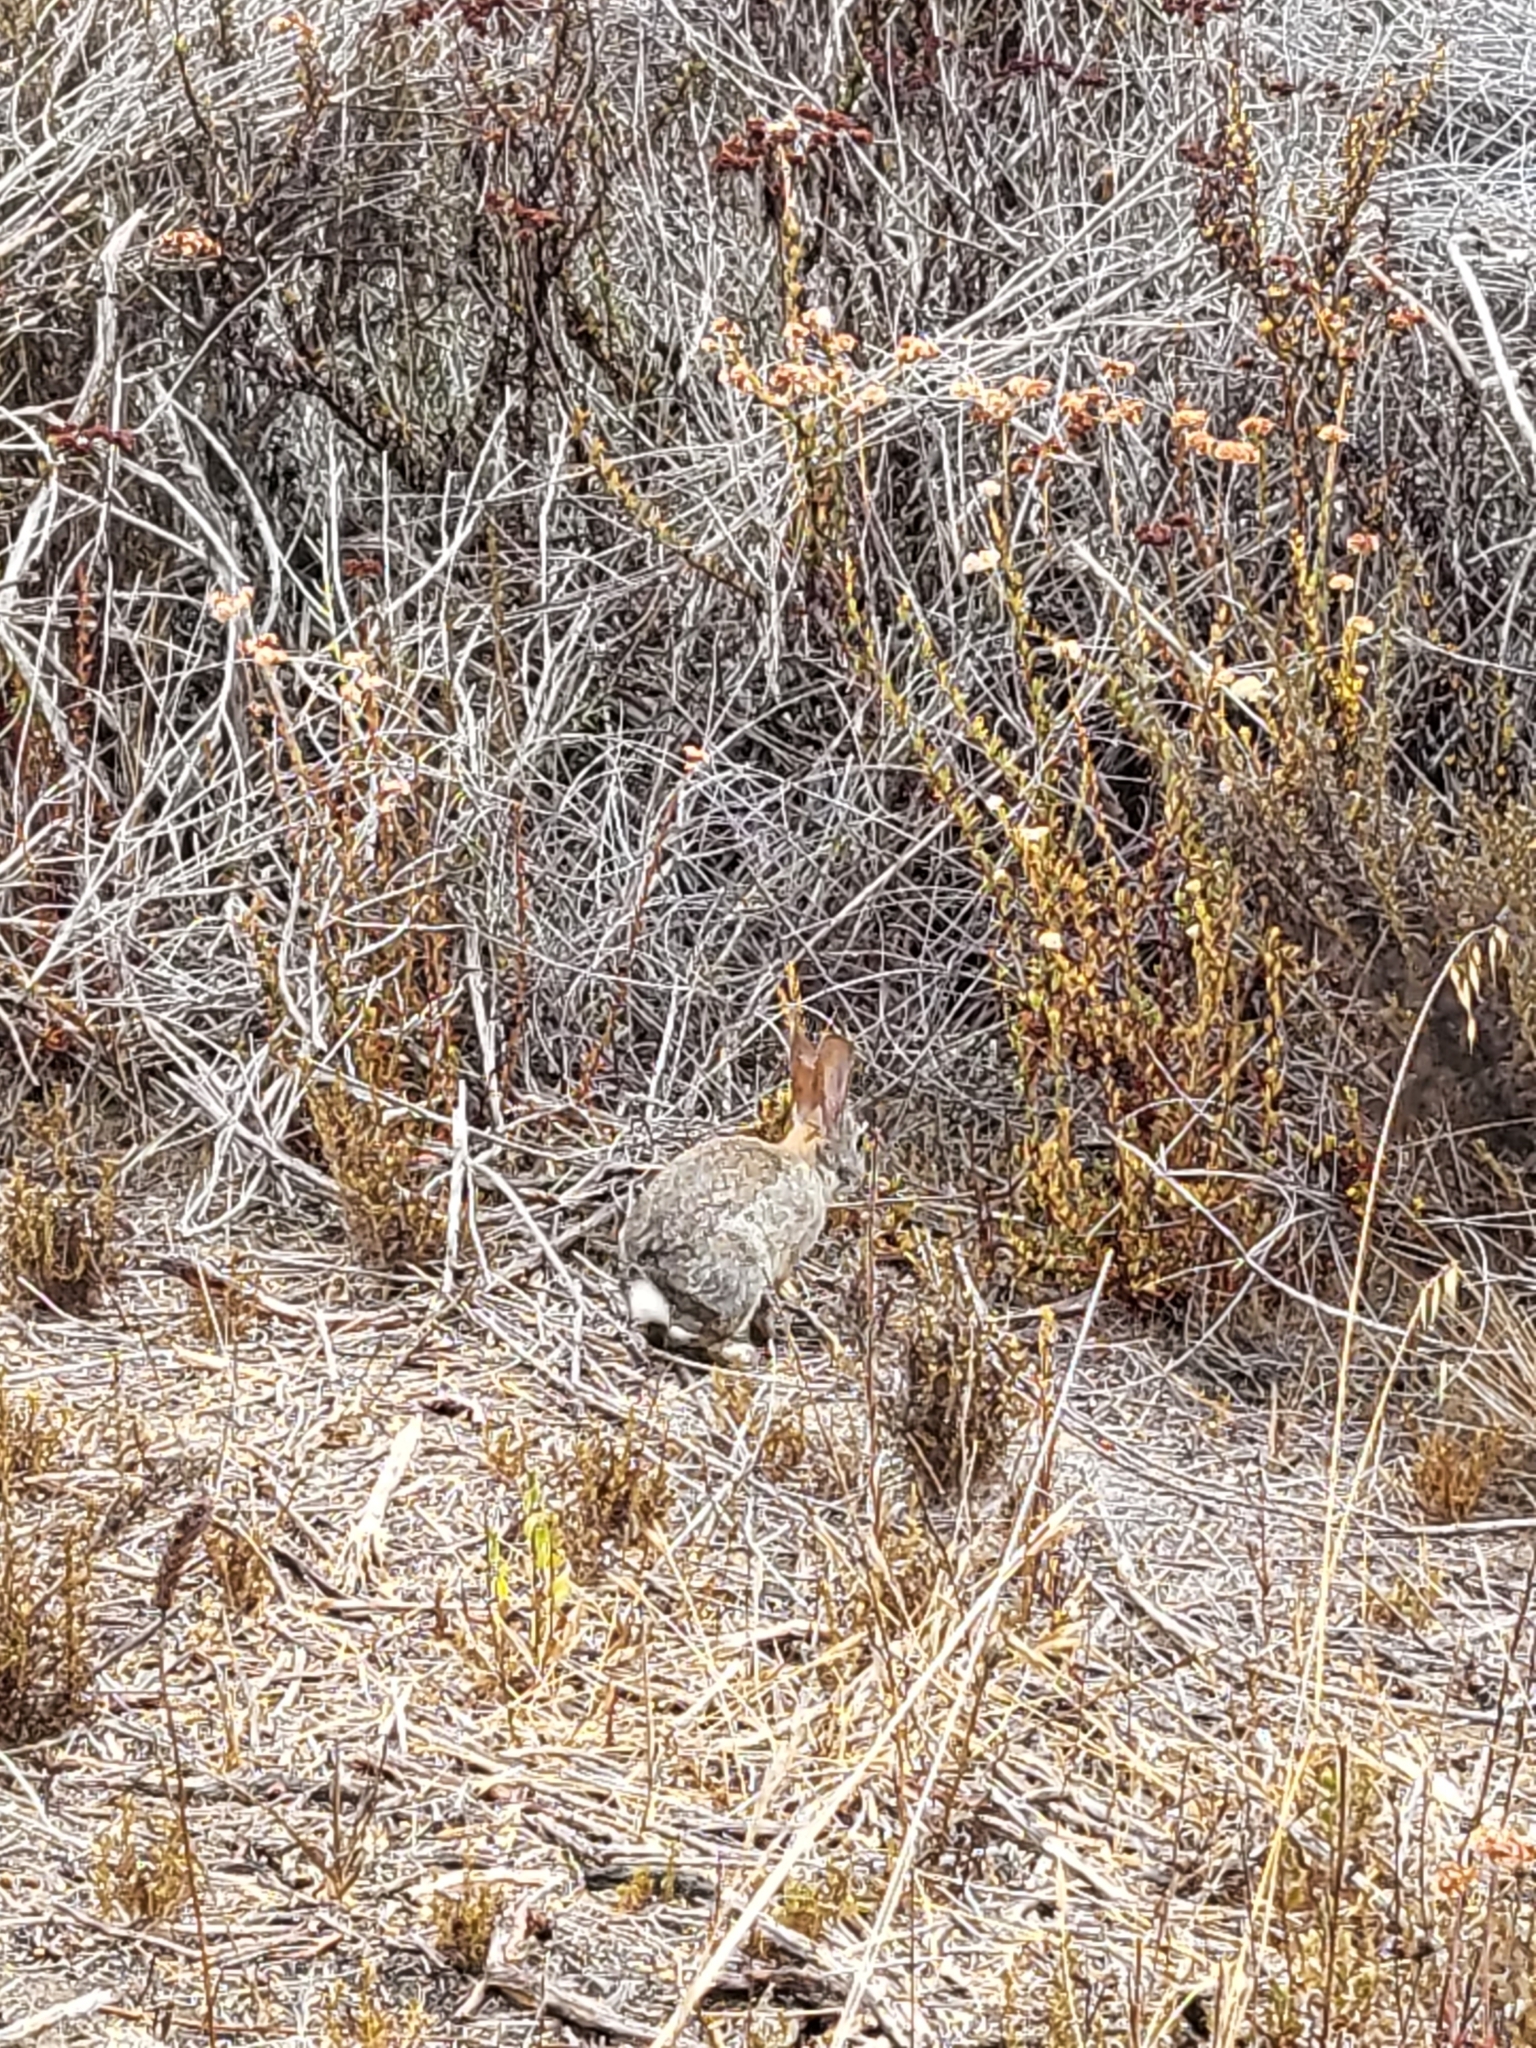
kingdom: Animalia
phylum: Chordata
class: Mammalia
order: Lagomorpha
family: Leporidae
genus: Sylvilagus
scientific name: Sylvilagus audubonii
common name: Desert cottontail
